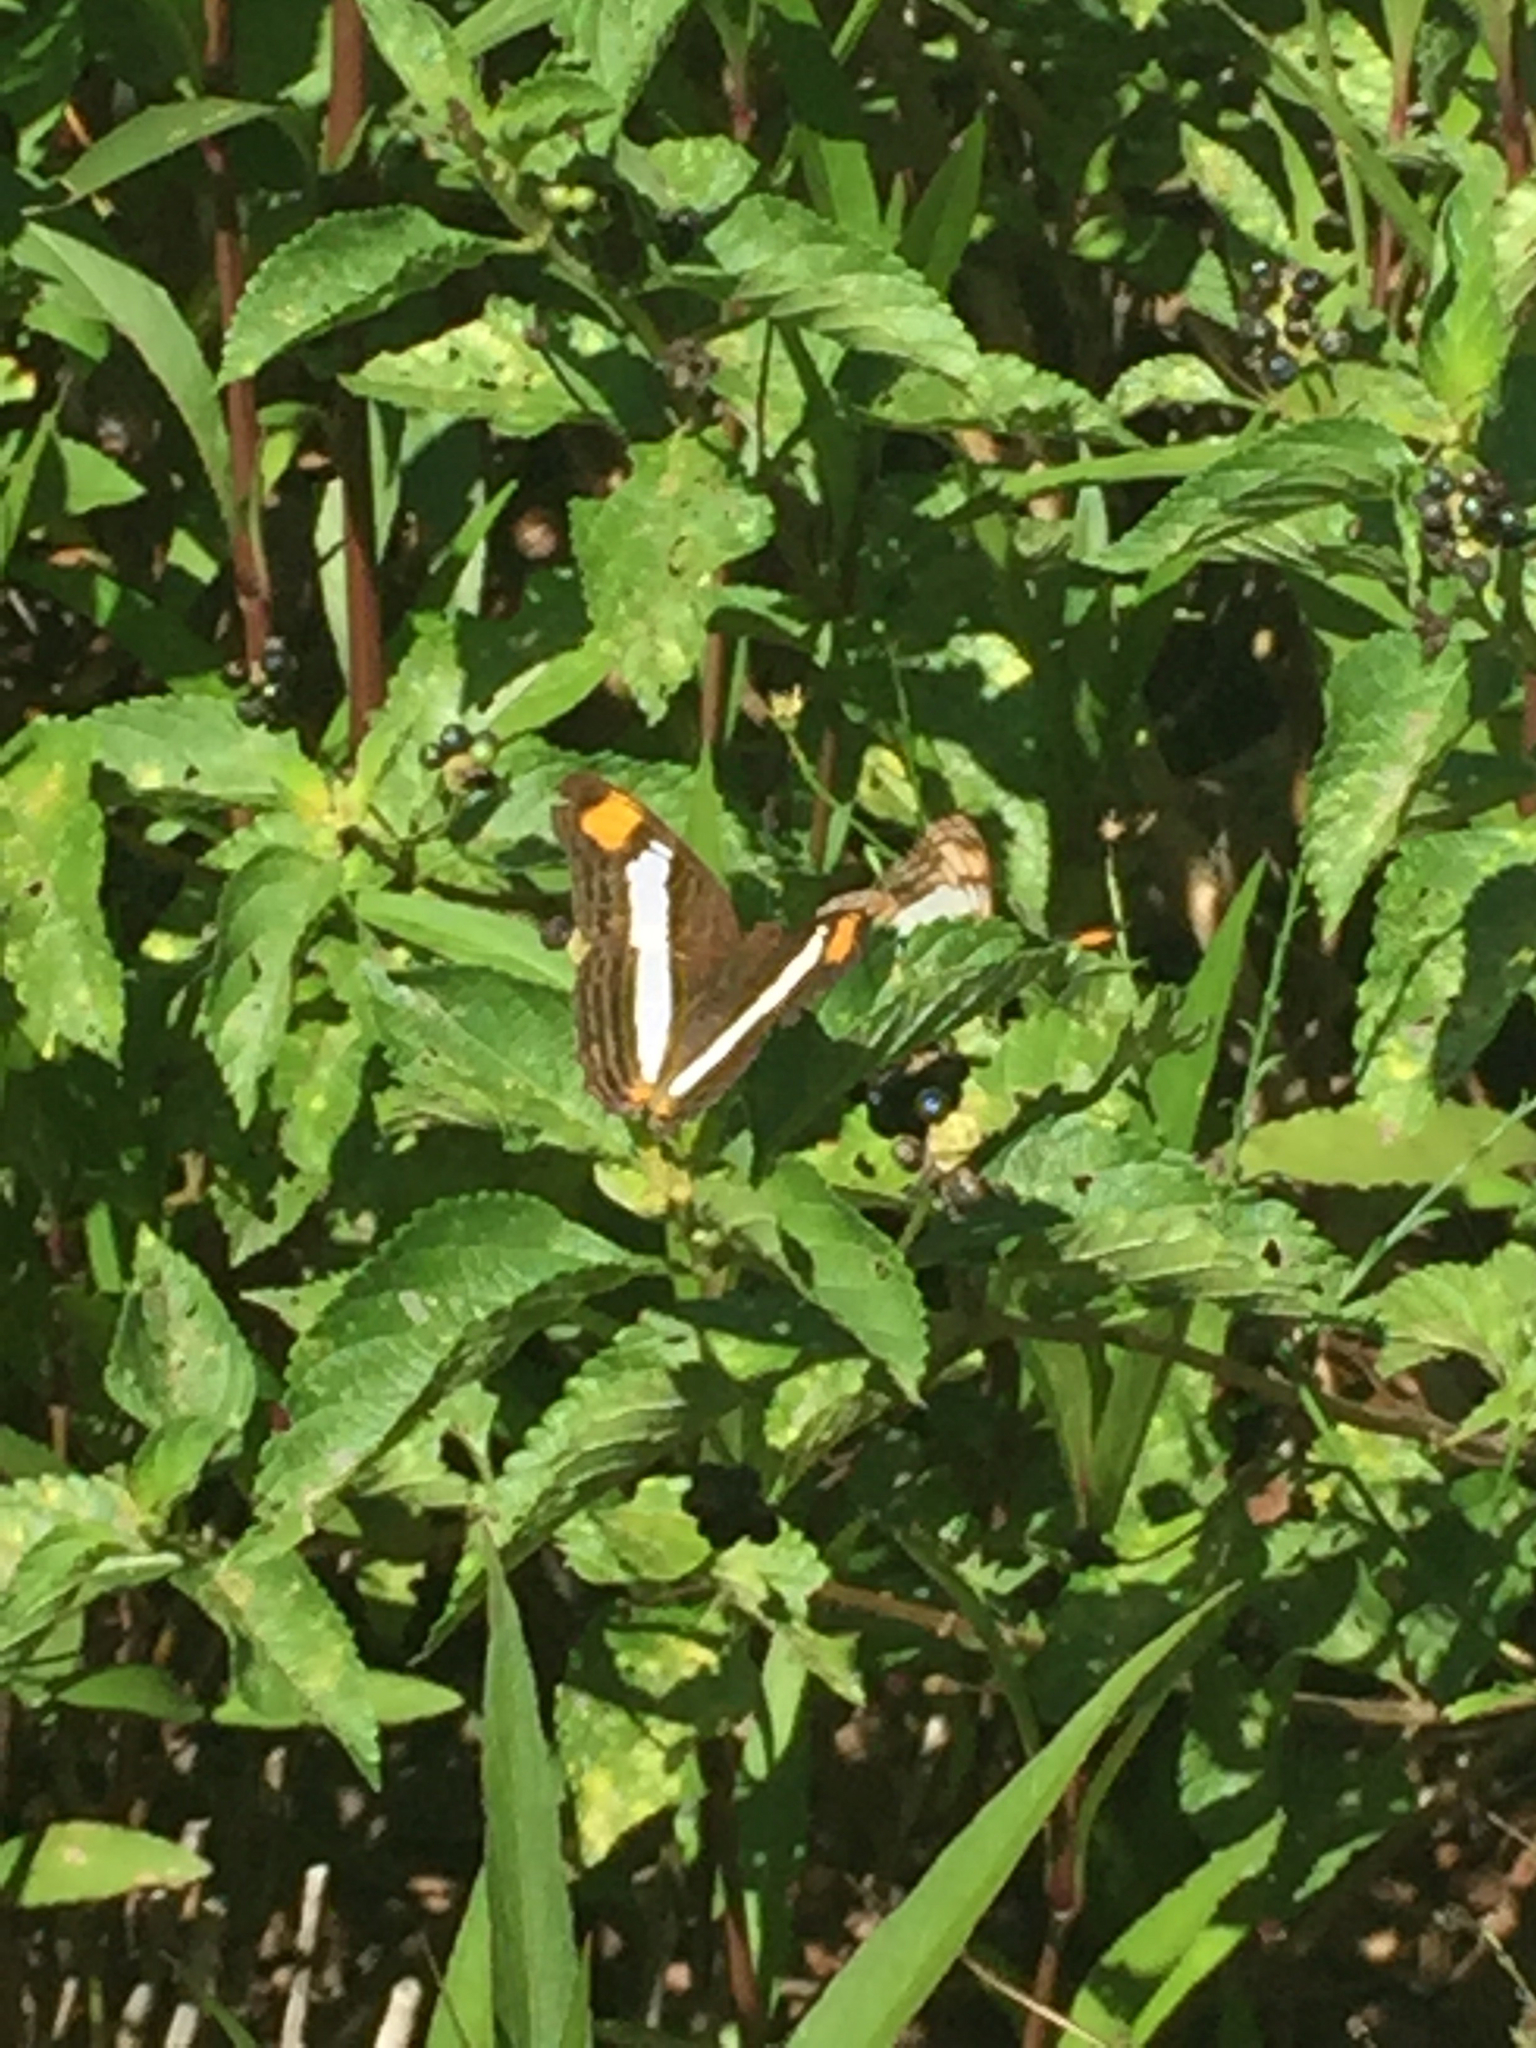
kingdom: Animalia
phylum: Arthropoda
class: Insecta
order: Lepidoptera
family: Nymphalidae
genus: Limenitis
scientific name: Limenitis Adelpha basiloides
